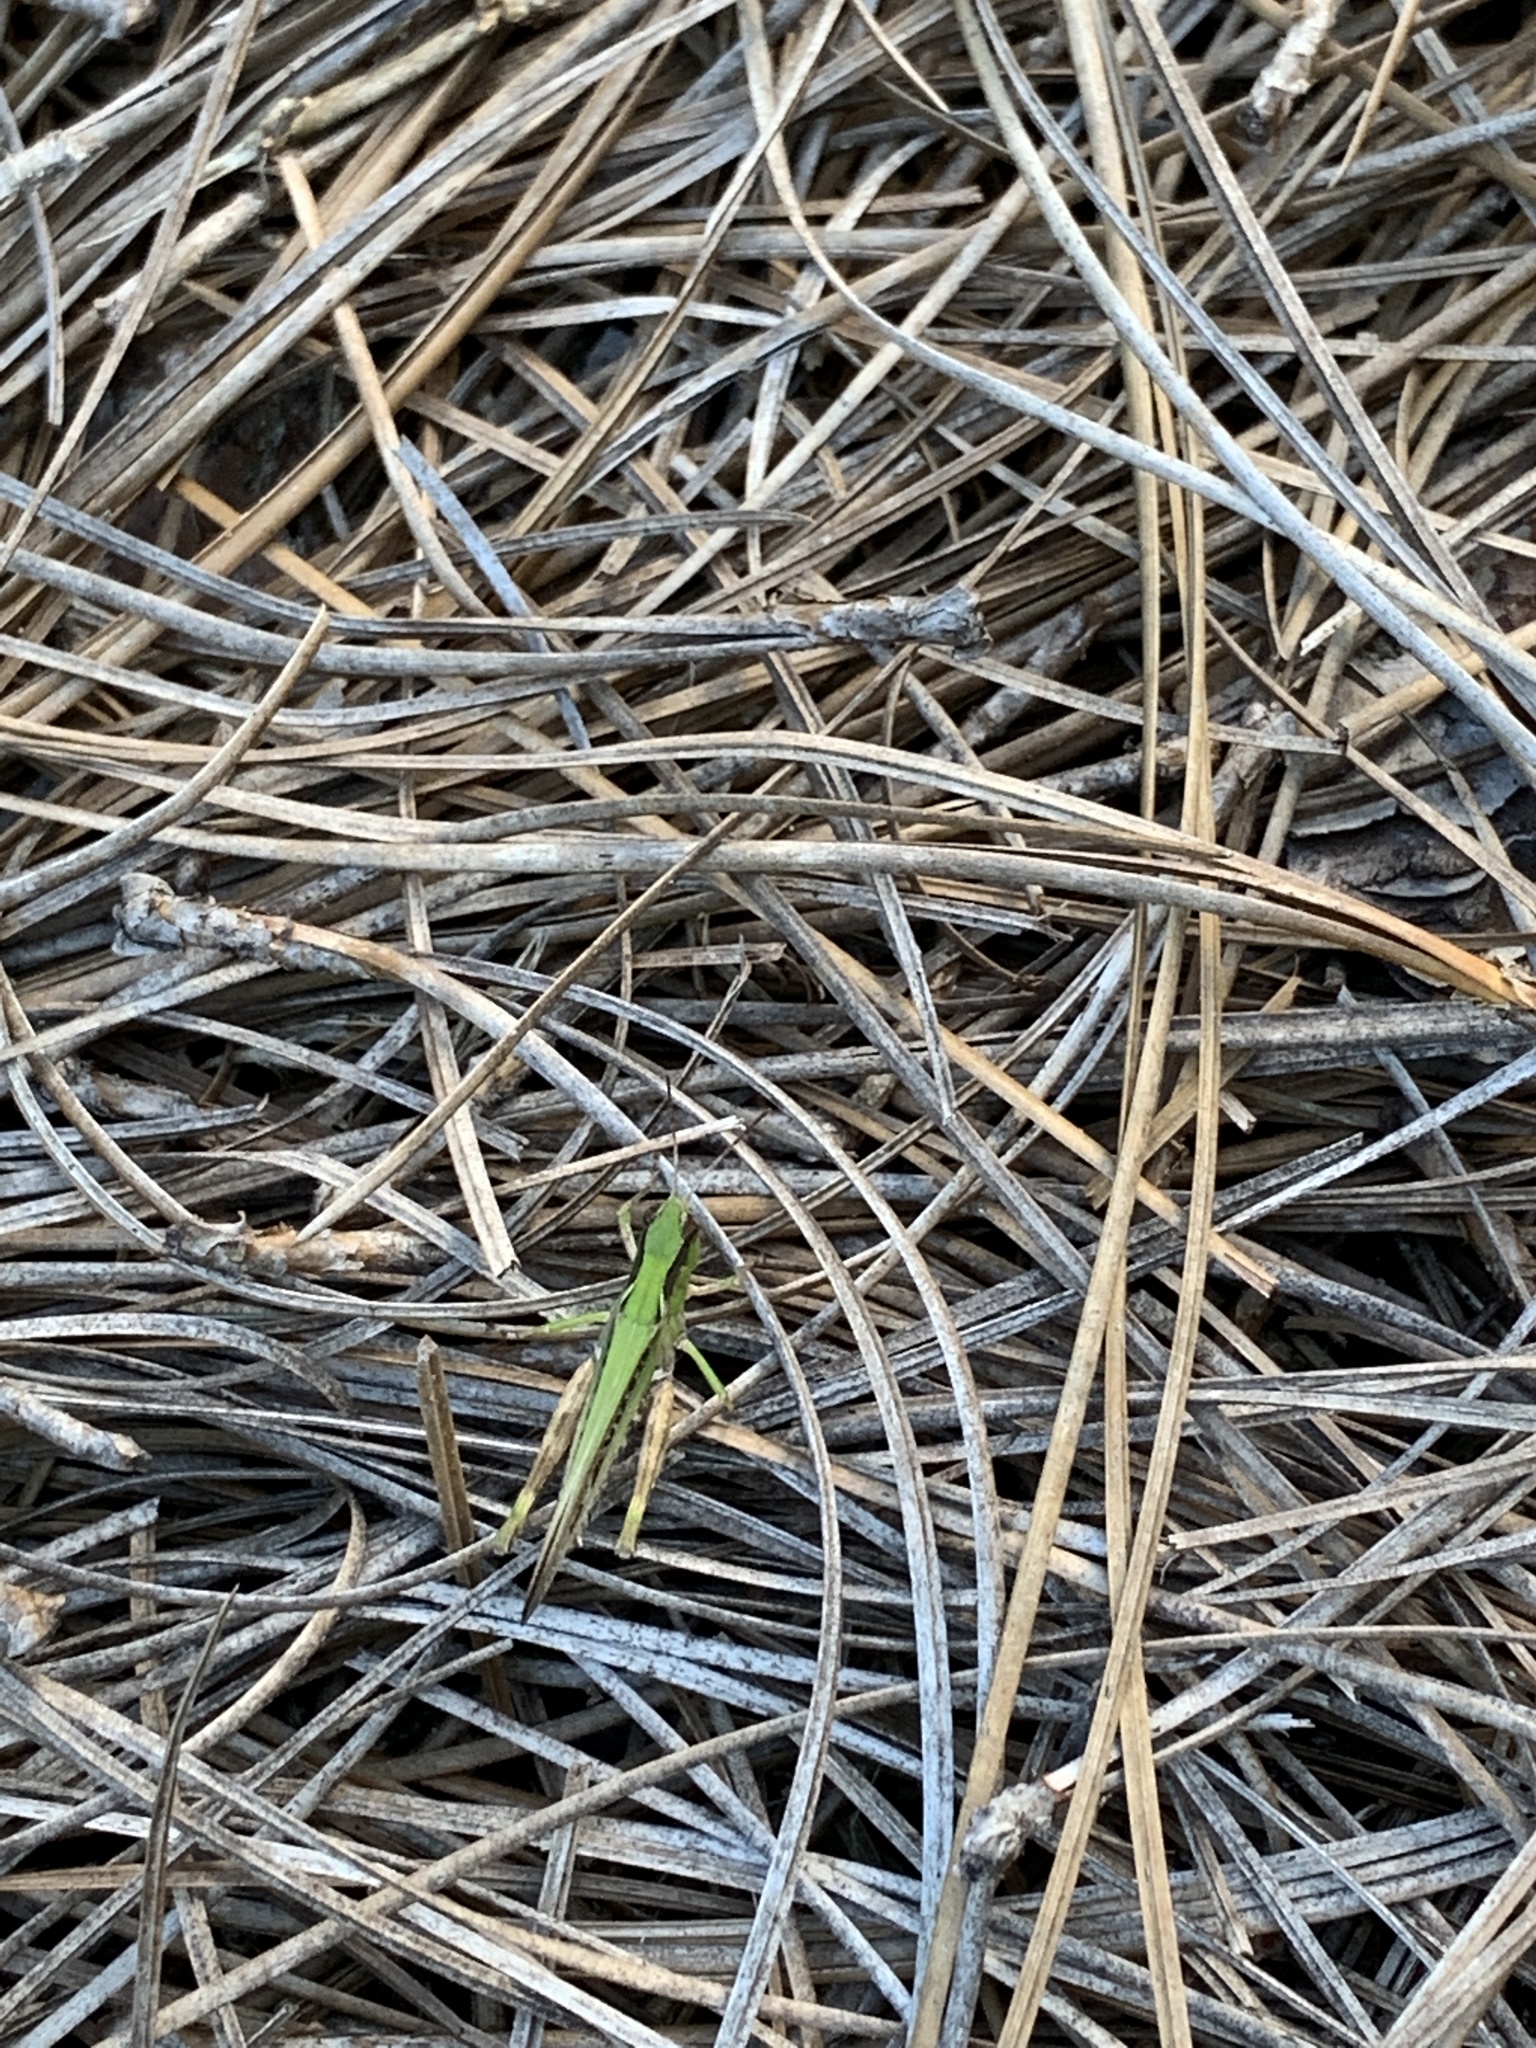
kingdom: Animalia
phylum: Arthropoda
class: Insecta
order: Orthoptera
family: Acrididae
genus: Orphulella
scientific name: Orphulella pelidna
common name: Spotted-wing grasshopper
